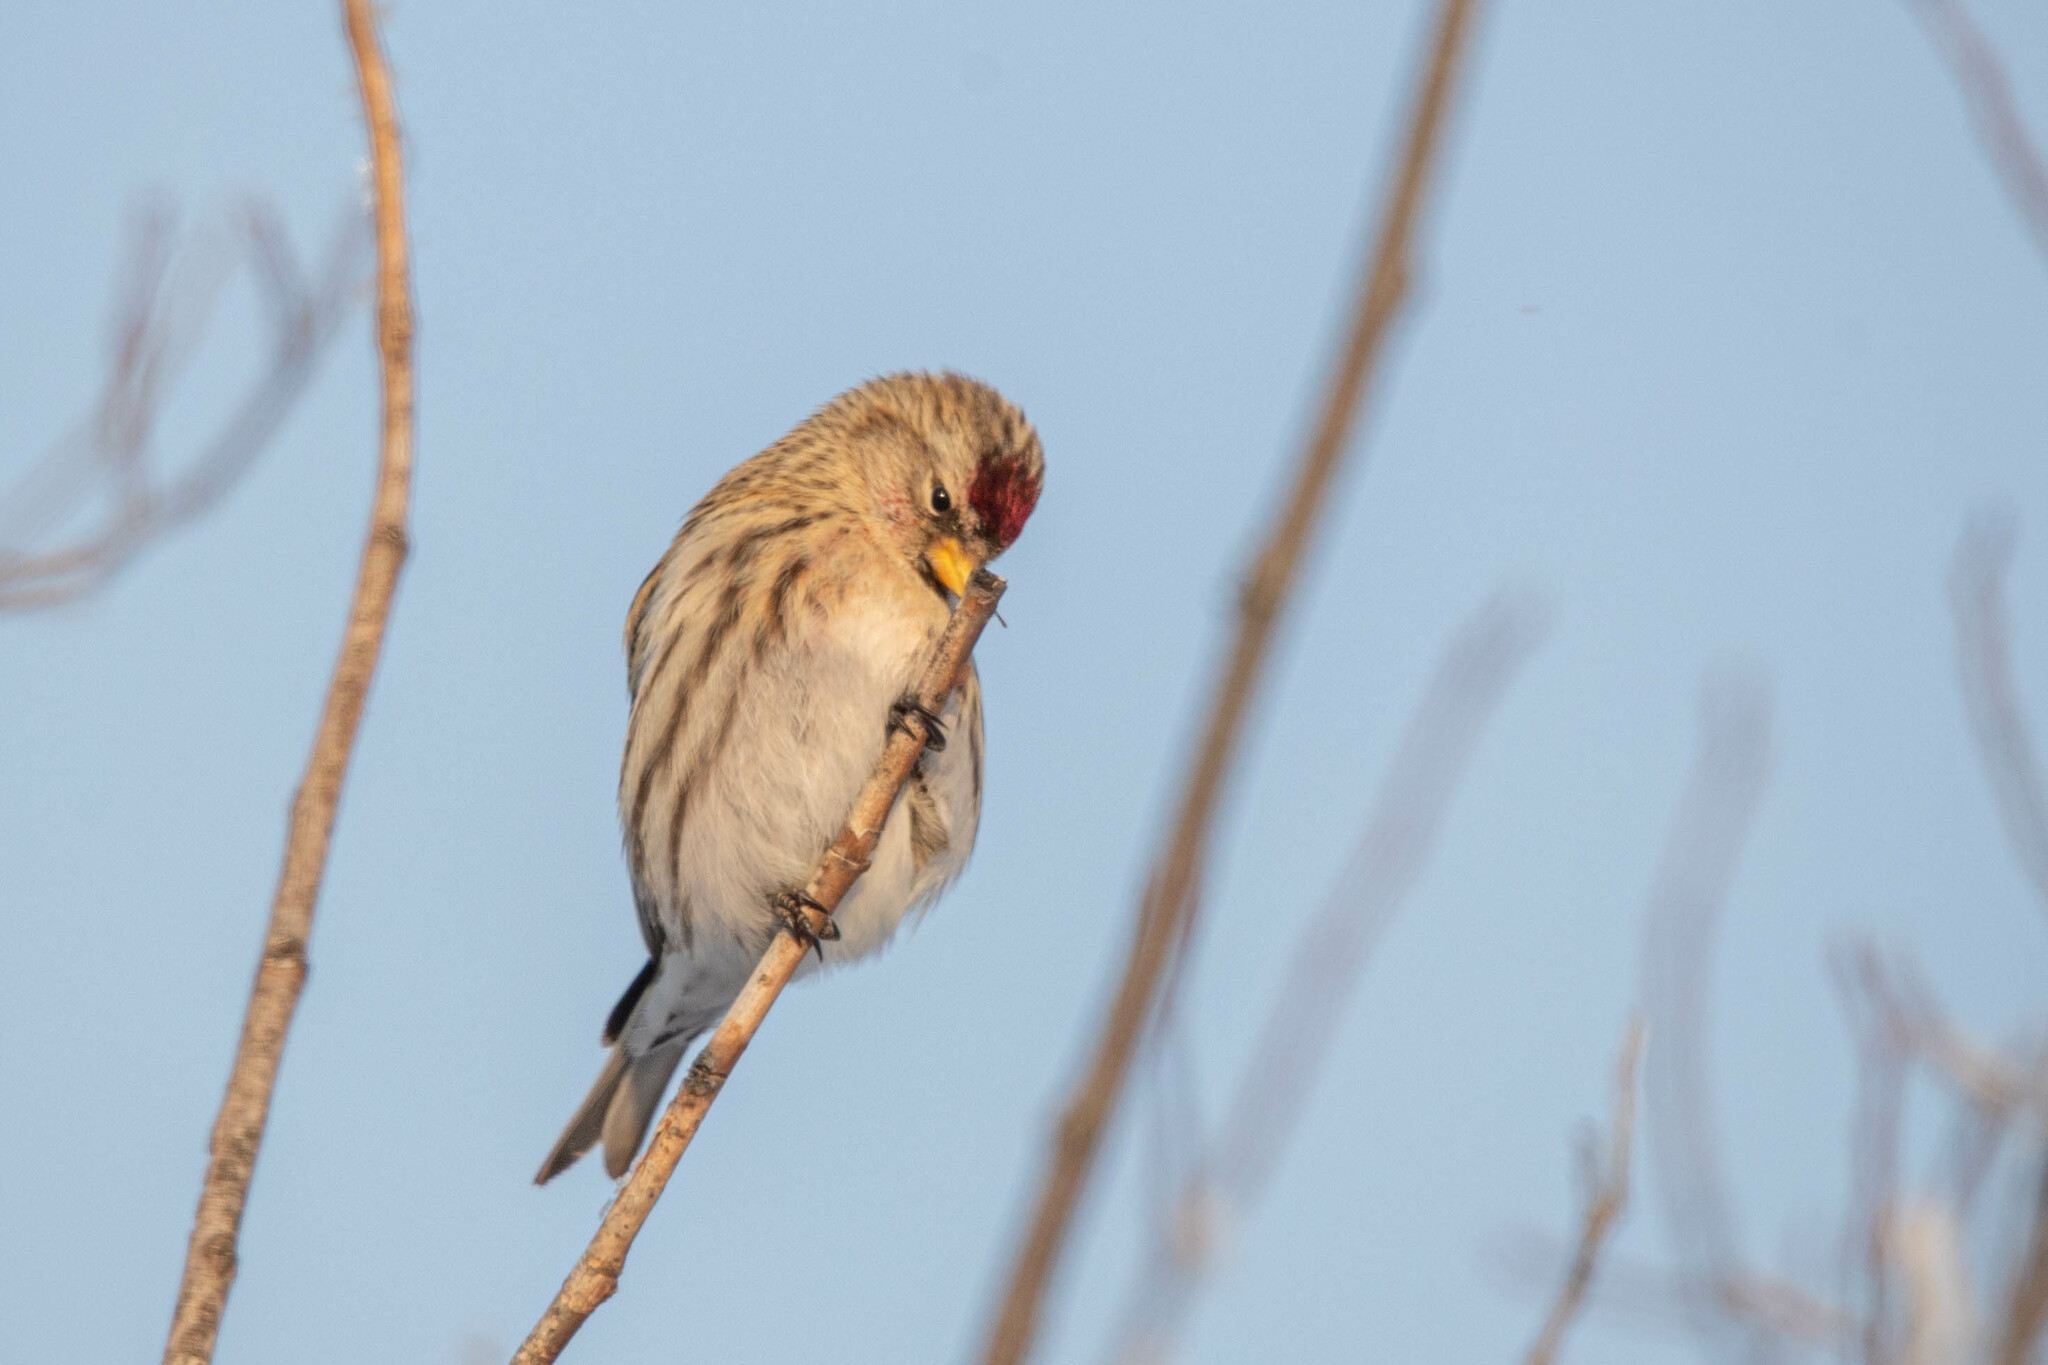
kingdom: Animalia
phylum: Chordata
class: Aves
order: Passeriformes
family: Fringillidae
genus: Acanthis
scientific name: Acanthis flammea
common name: Common redpoll
